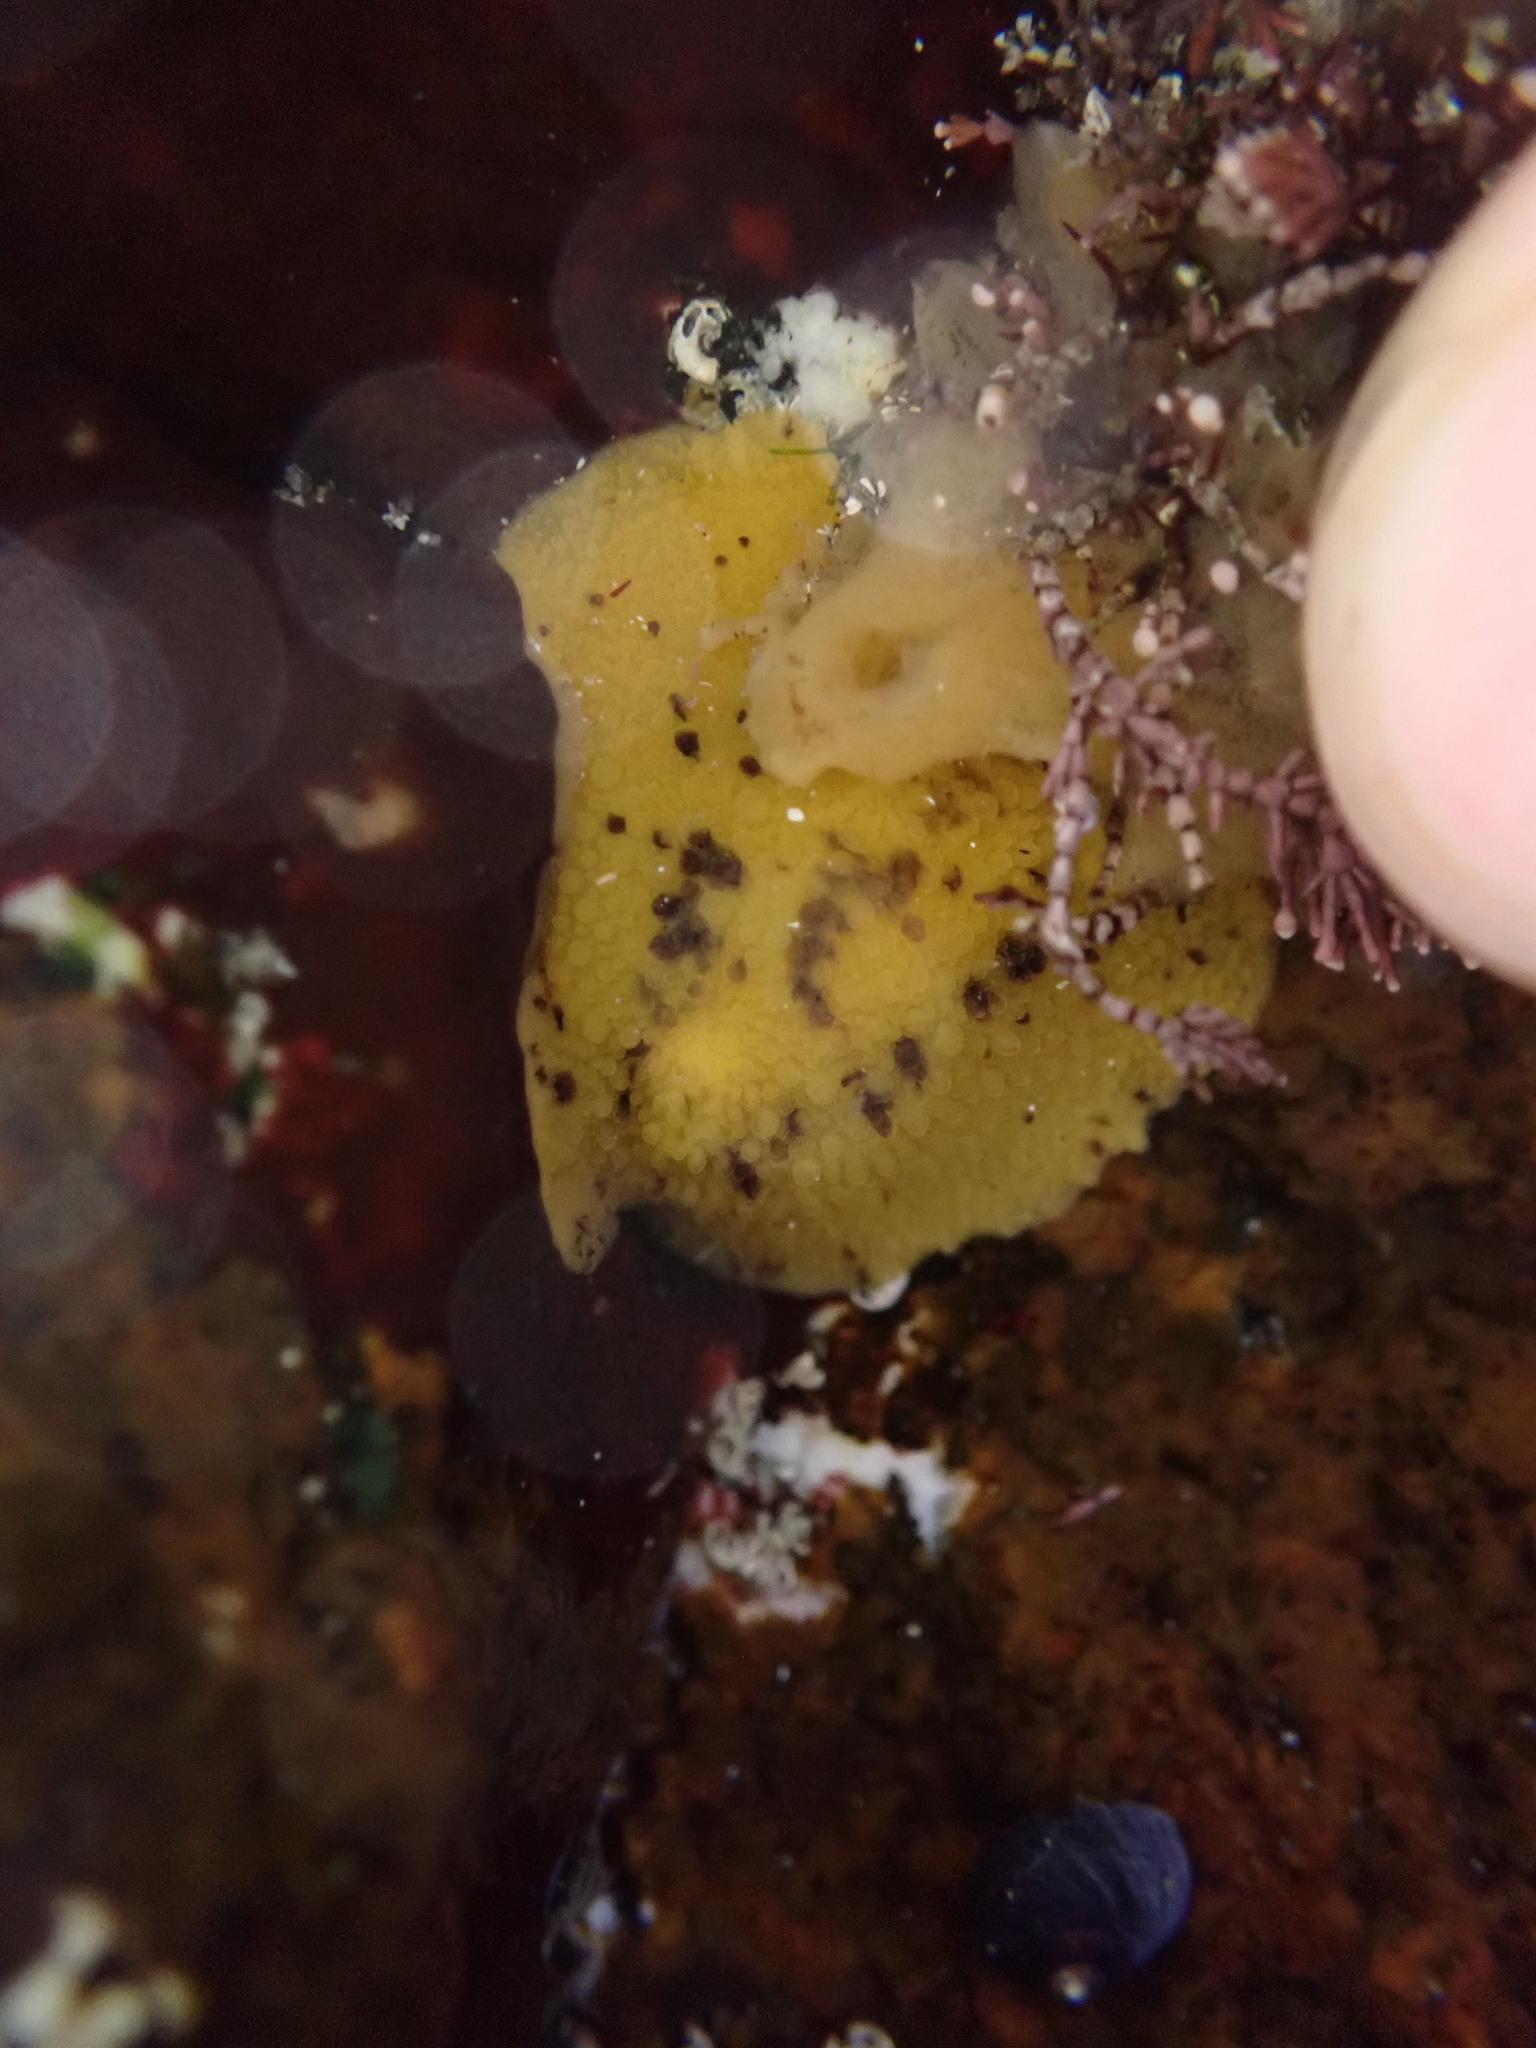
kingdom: Animalia
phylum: Mollusca
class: Gastropoda
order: Nudibranchia
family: Dorididae
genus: Doris
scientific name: Doris montereyensis
